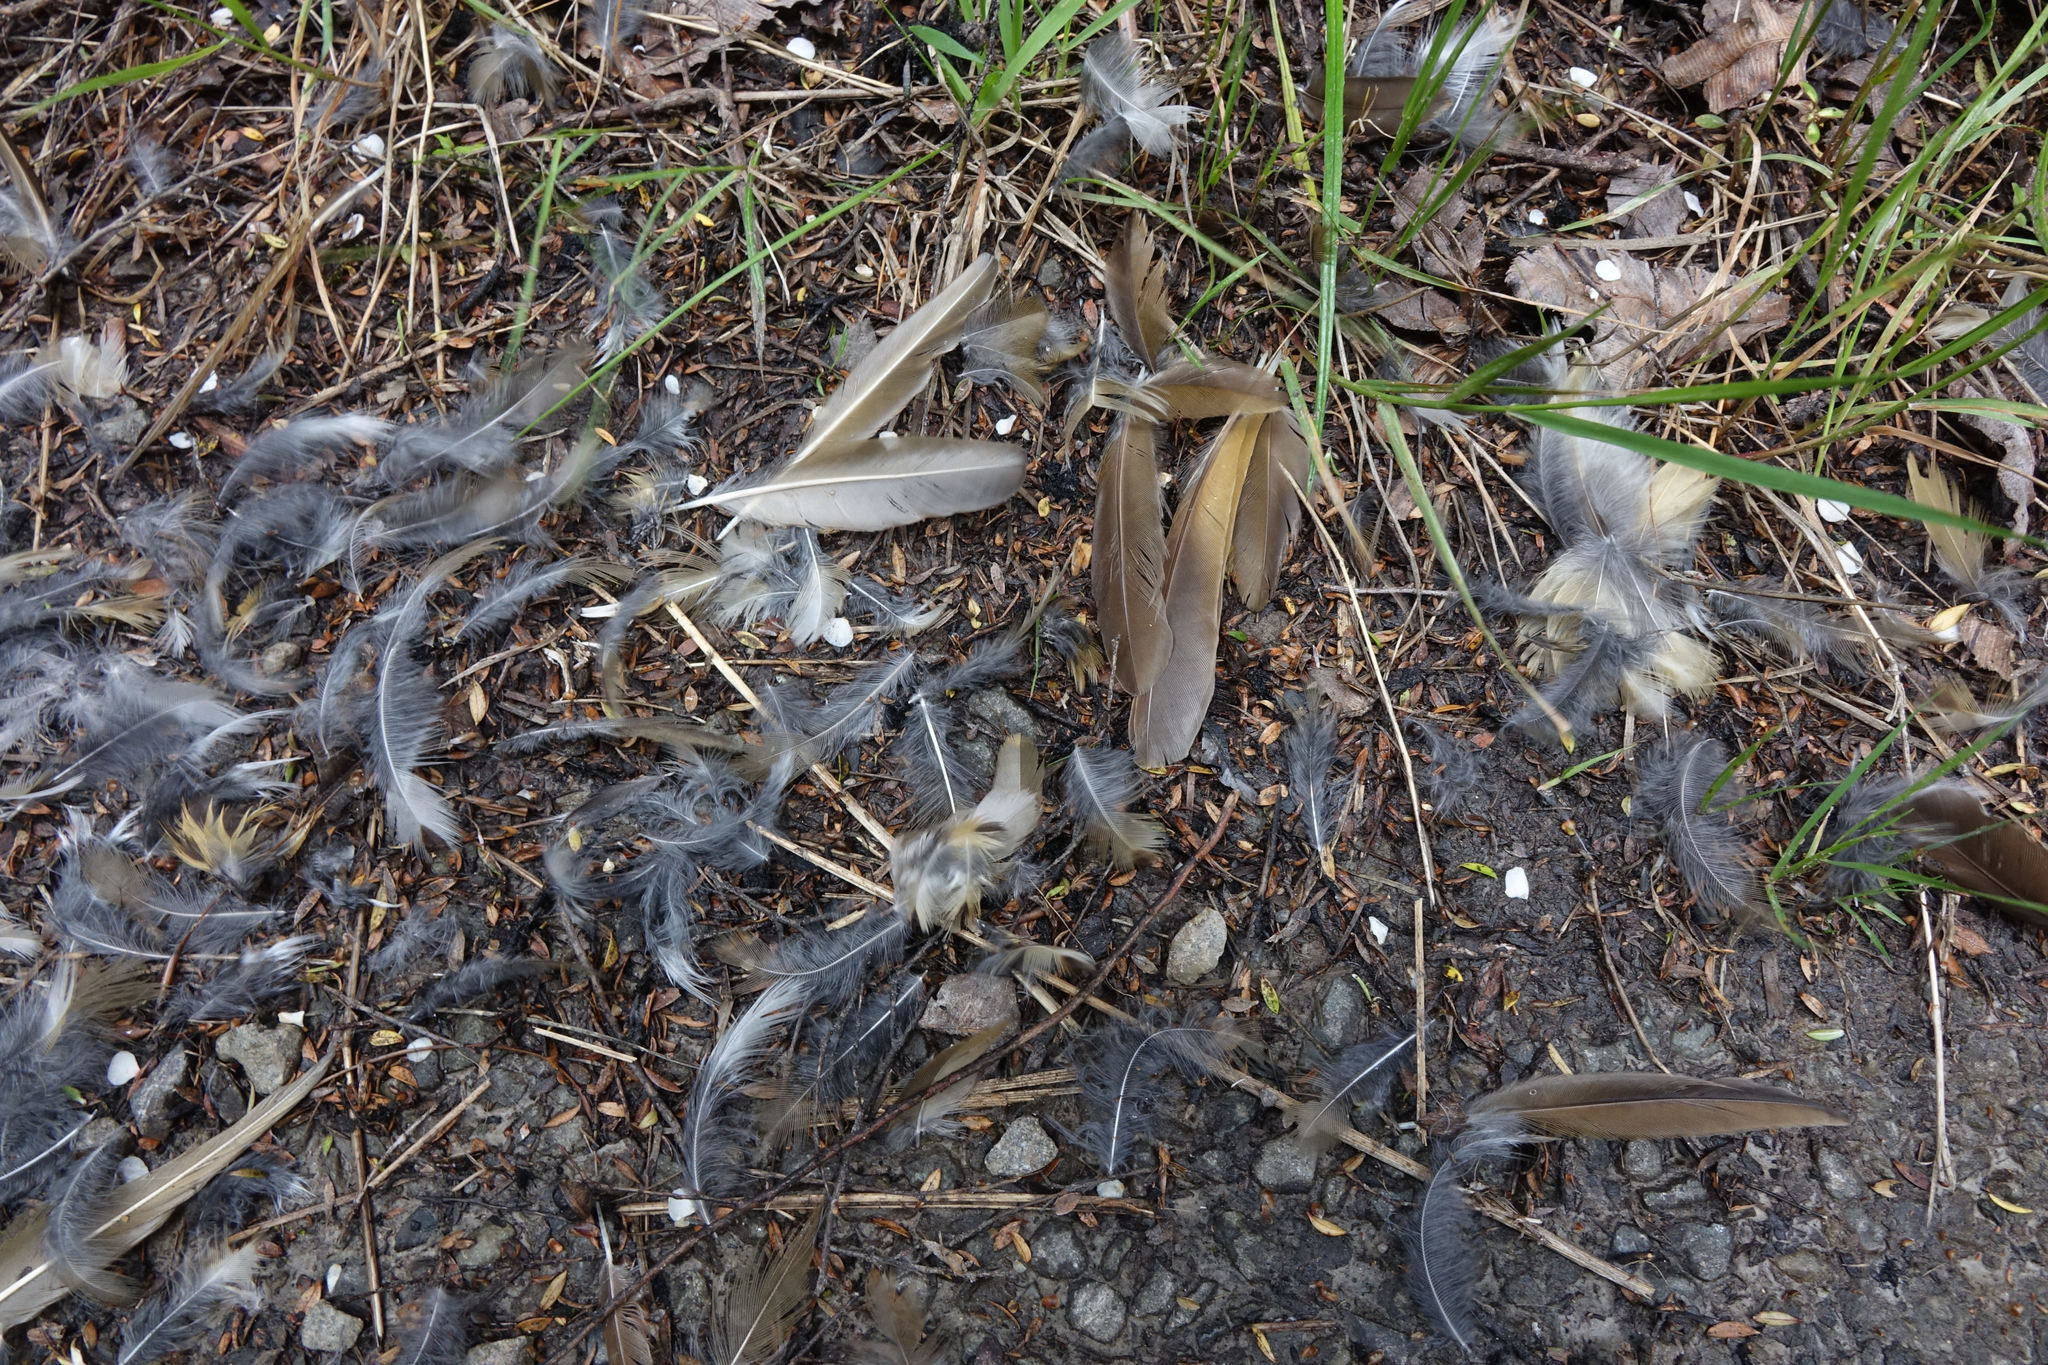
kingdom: Animalia
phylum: Chordata
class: Aves
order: Passeriformes
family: Turdidae
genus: Turdus
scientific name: Turdus philomelos
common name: Song thrush
